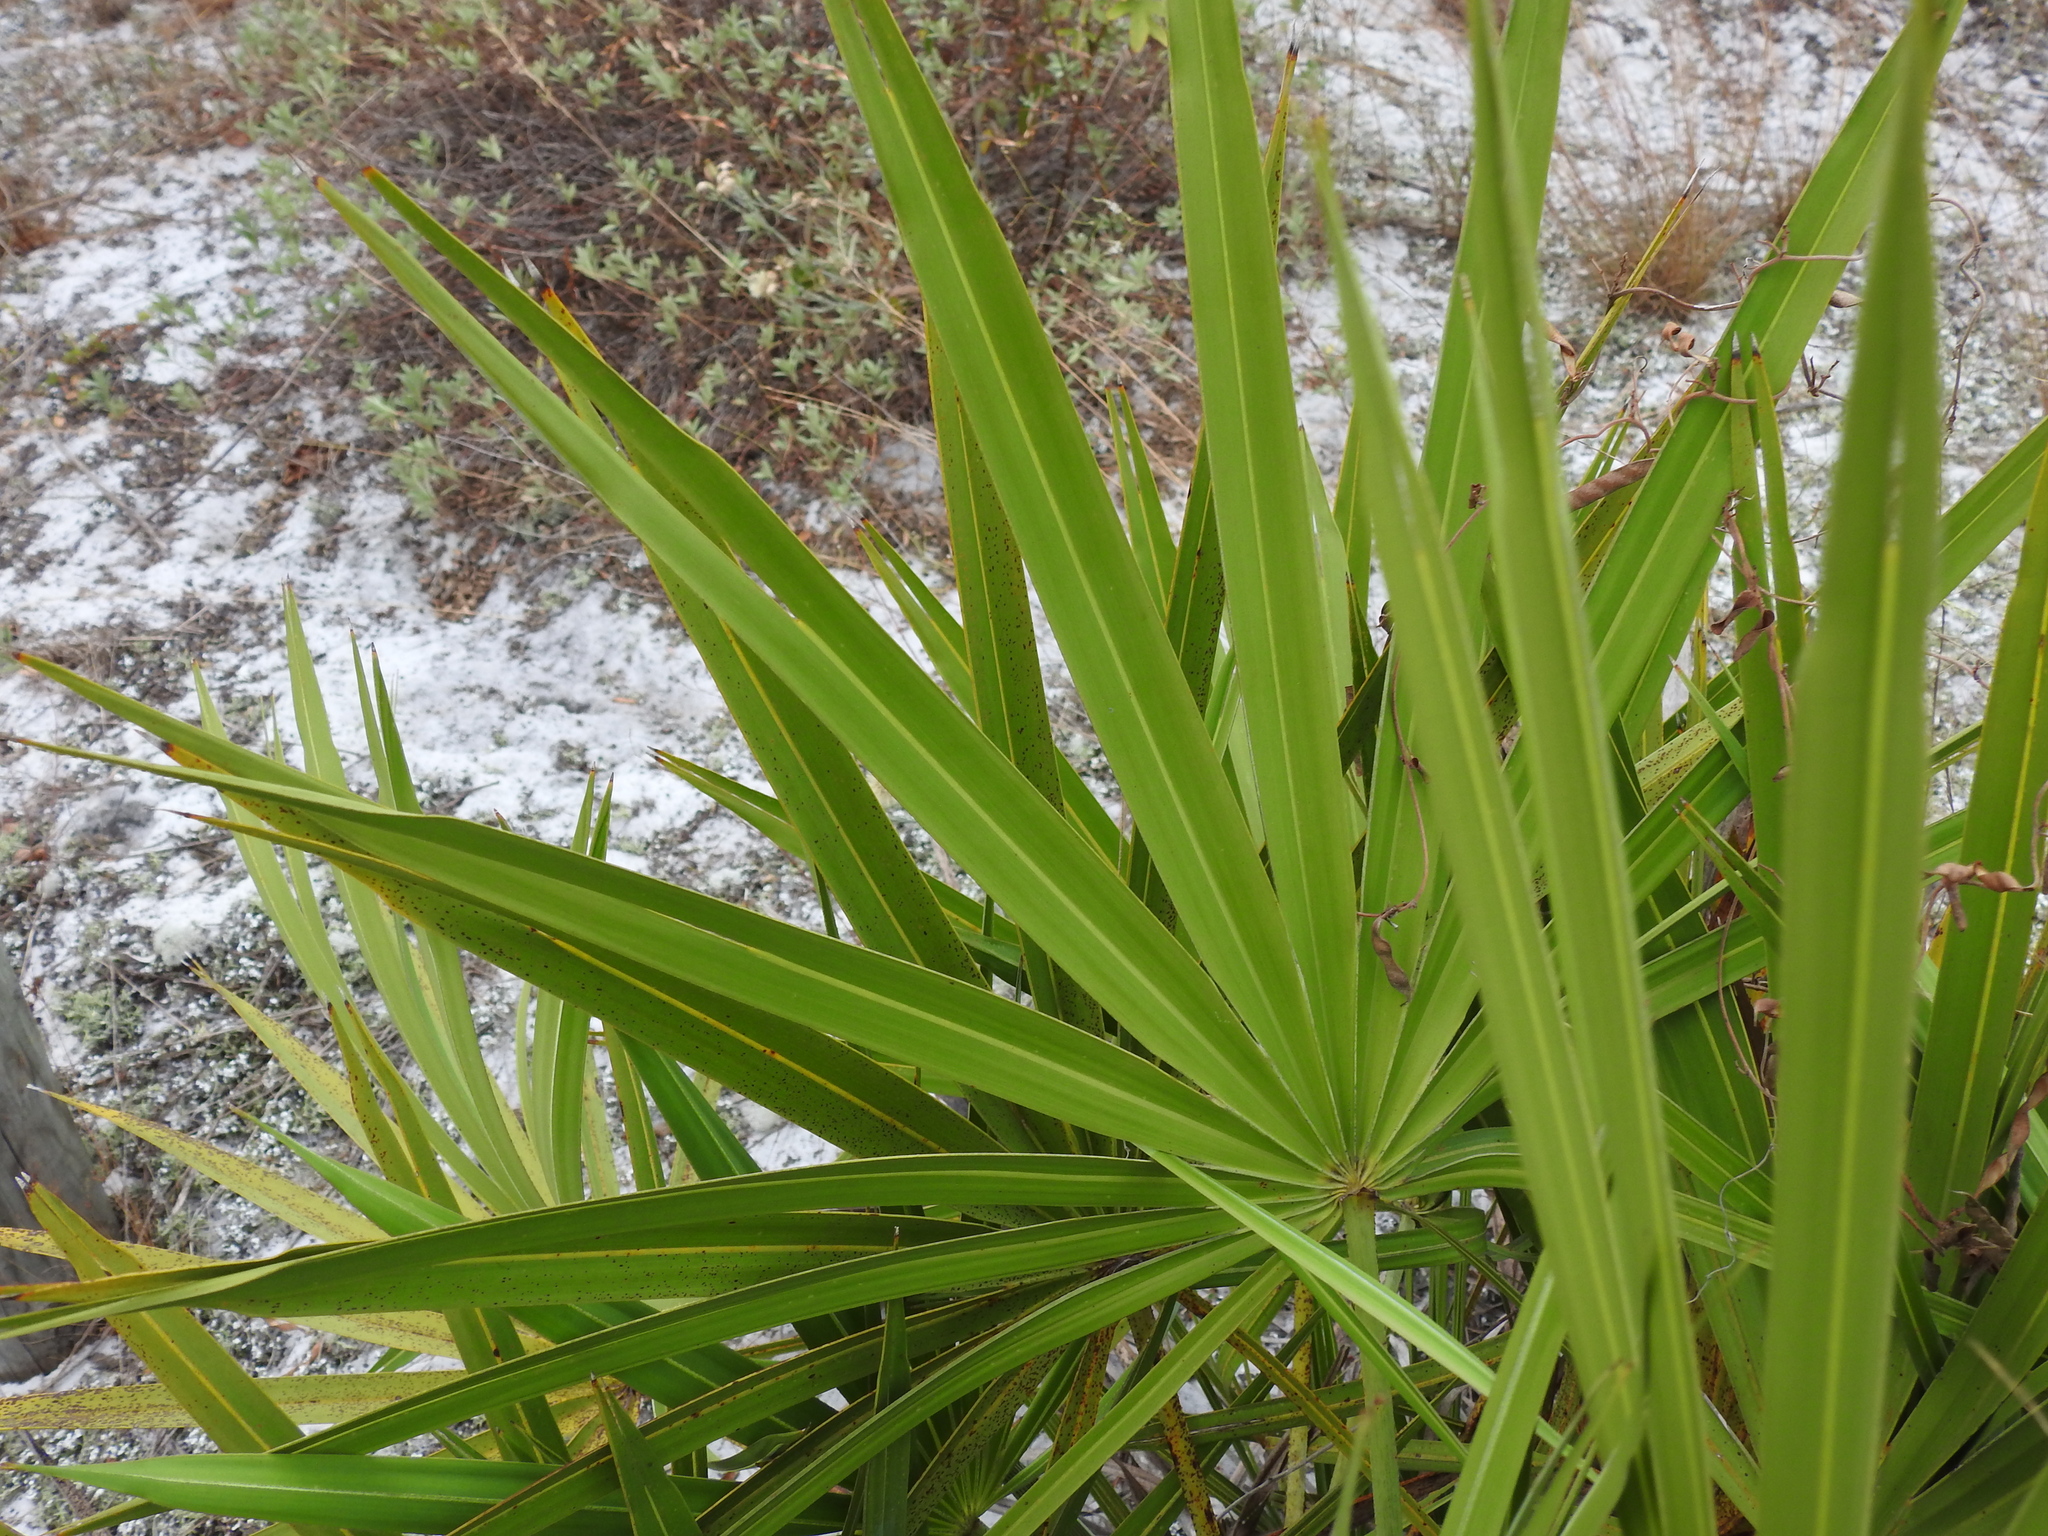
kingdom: Plantae
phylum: Tracheophyta
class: Liliopsida
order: Arecales
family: Arecaceae
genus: Serenoa
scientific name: Serenoa repens
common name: Saw-palmetto
